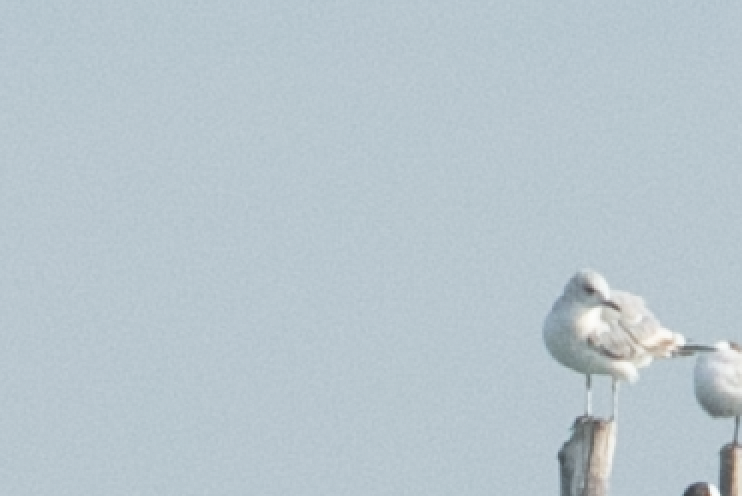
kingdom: Animalia
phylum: Chordata
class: Aves
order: Charadriiformes
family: Laridae
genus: Larus
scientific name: Larus canus
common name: Mew gull
